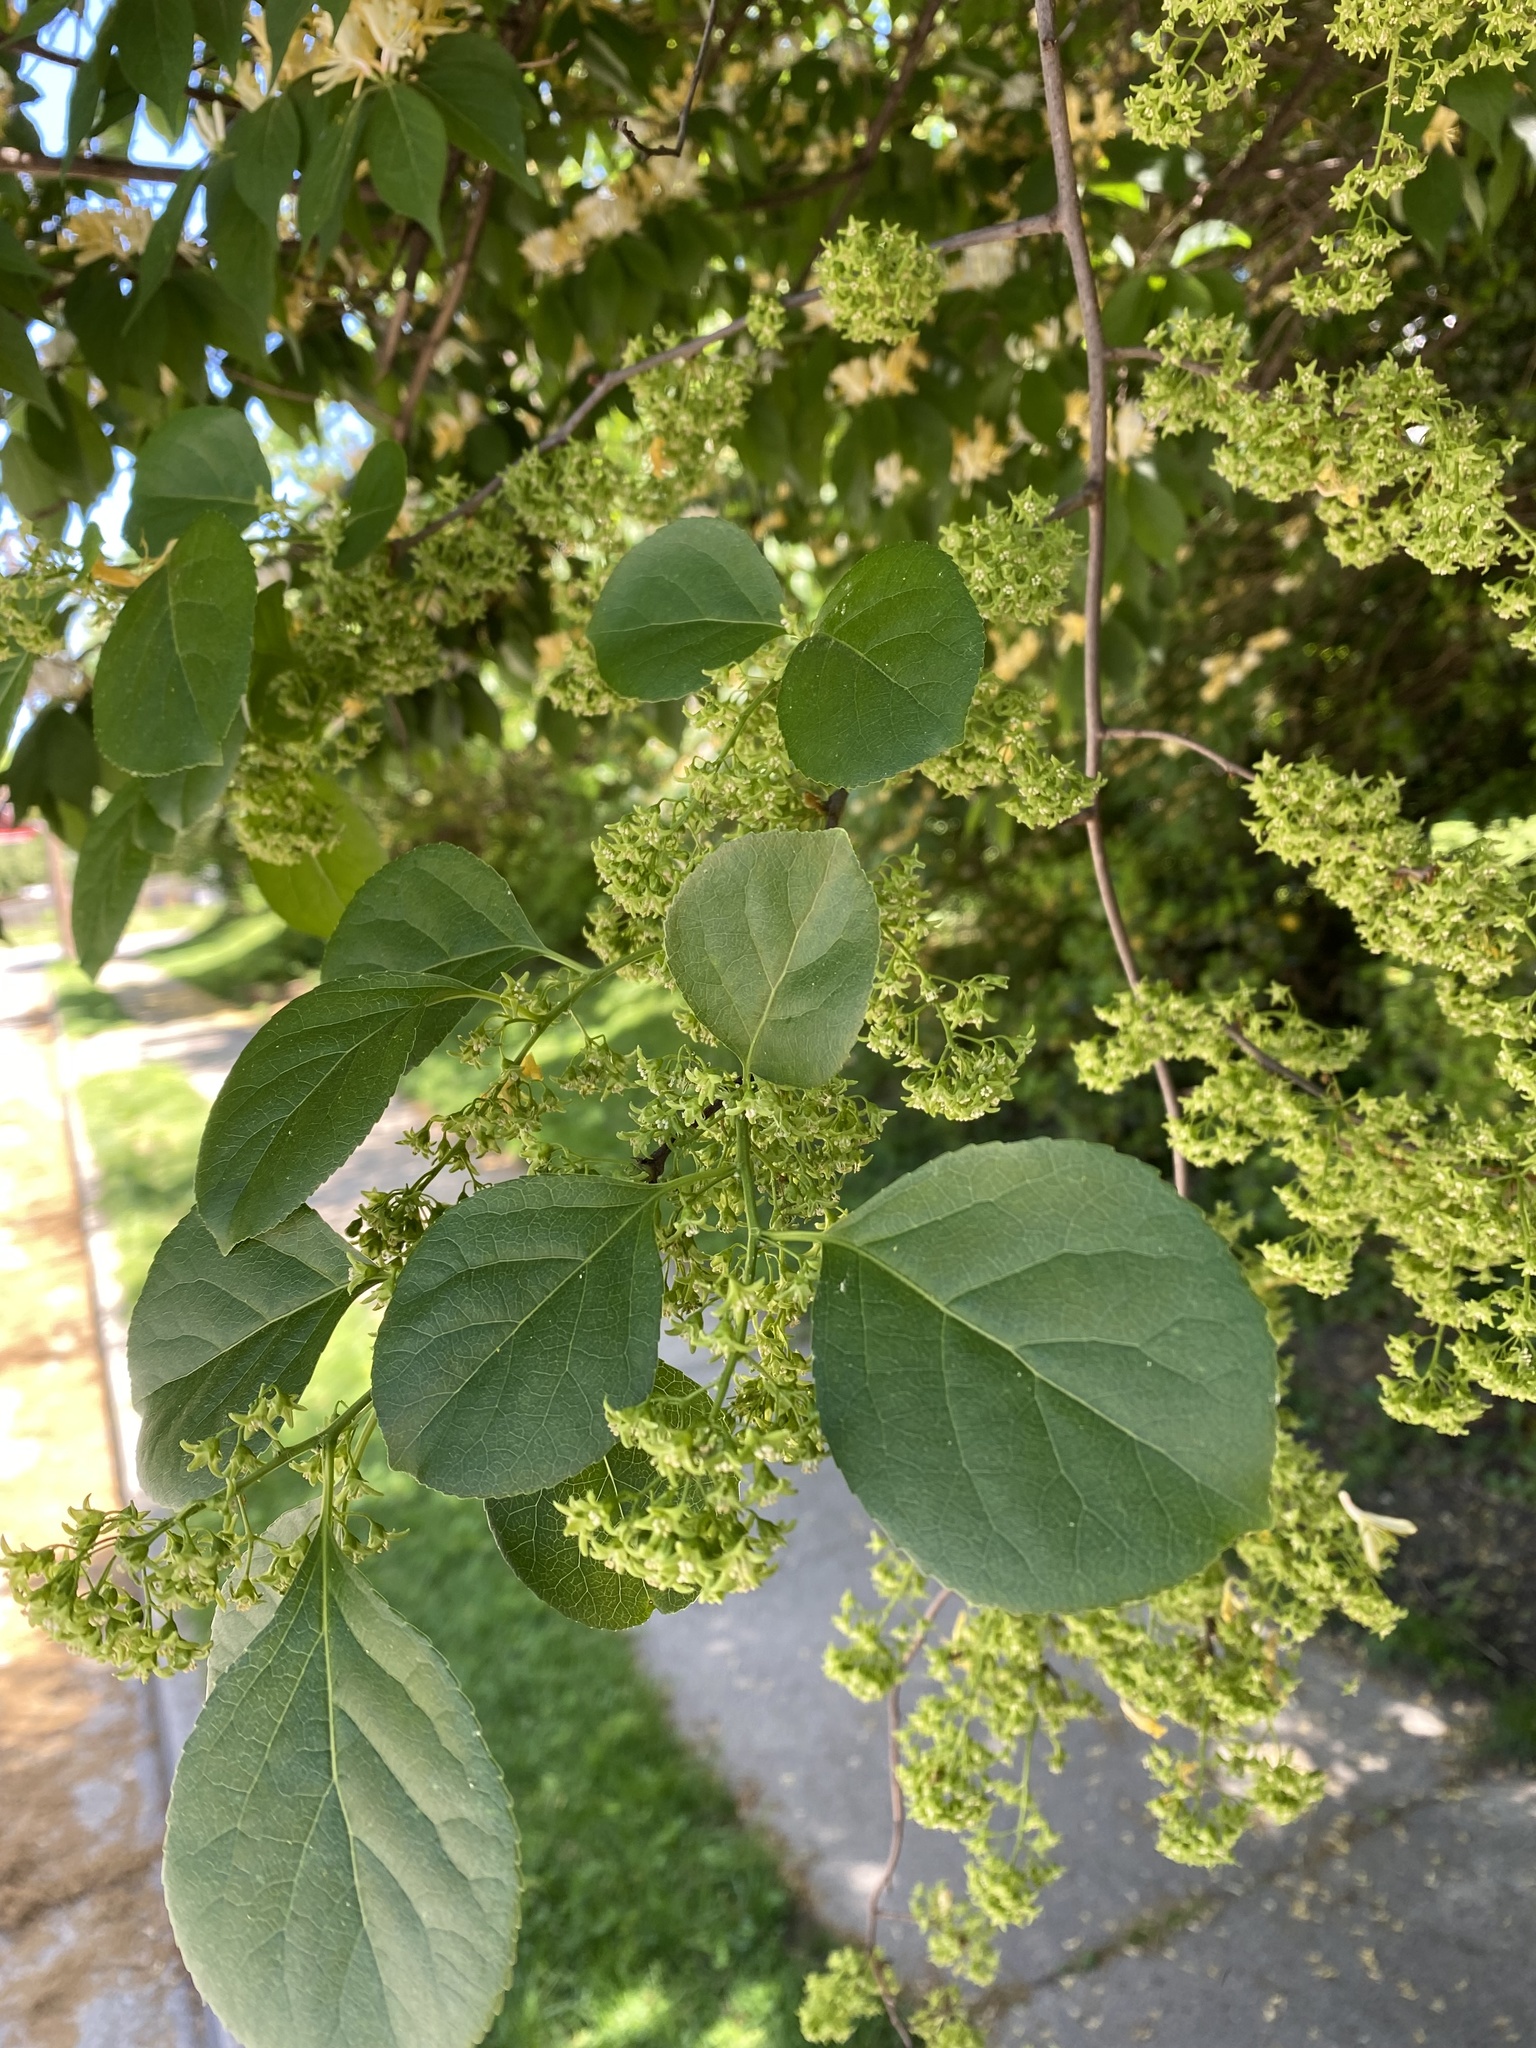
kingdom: Plantae
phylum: Tracheophyta
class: Magnoliopsida
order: Celastrales
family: Celastraceae
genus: Celastrus
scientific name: Celastrus orbiculatus
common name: Oriental bittersweet
